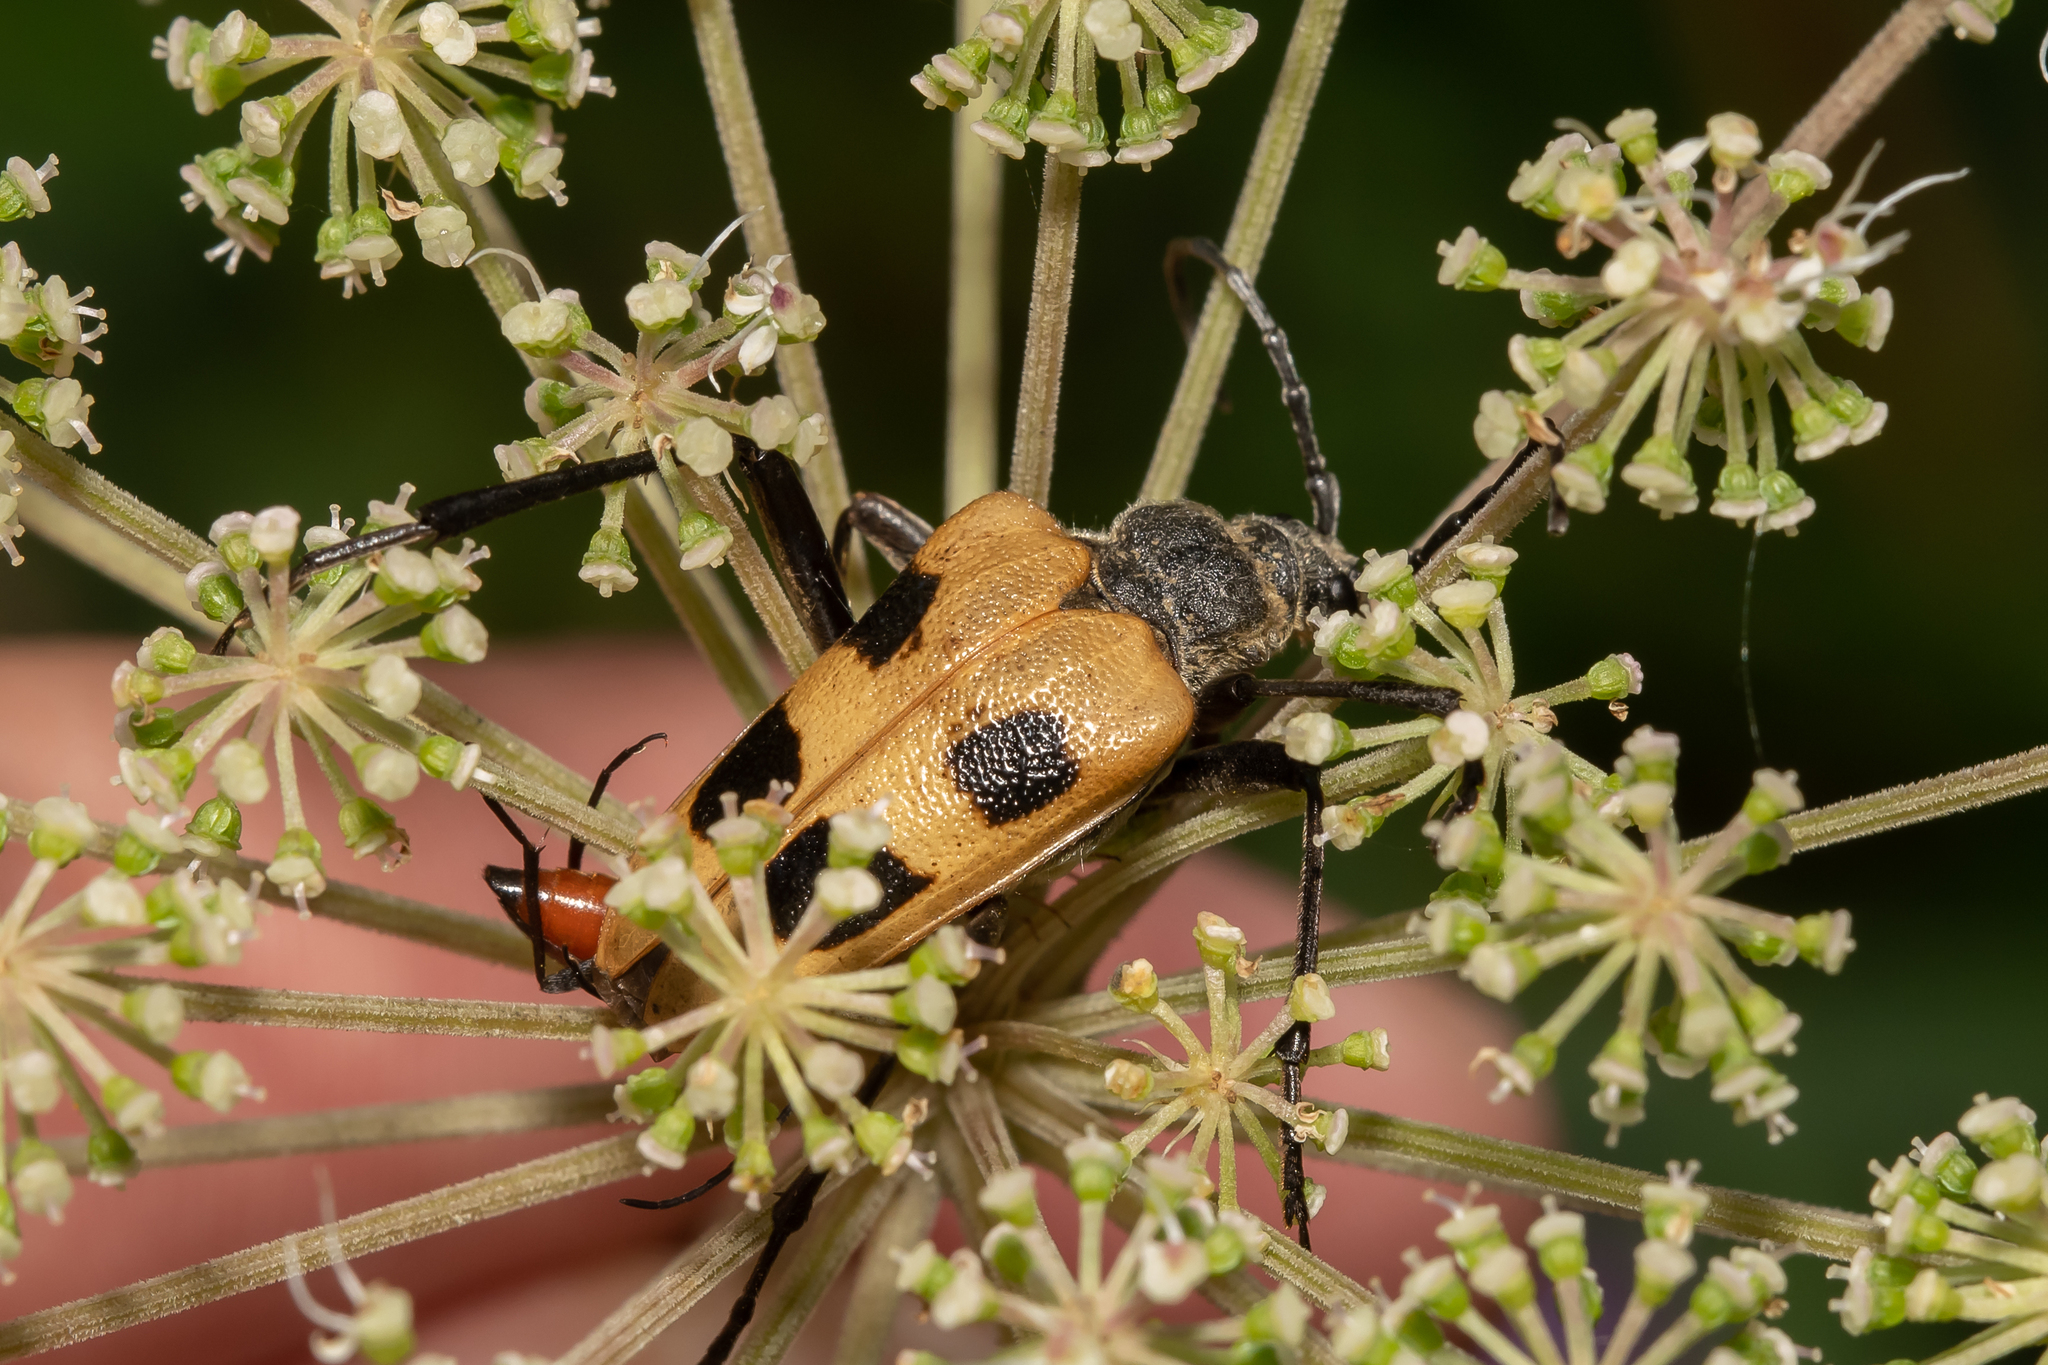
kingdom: Animalia
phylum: Arthropoda
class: Insecta
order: Coleoptera
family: Cerambycidae
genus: Pachyta
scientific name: Pachyta quadrimaculata
